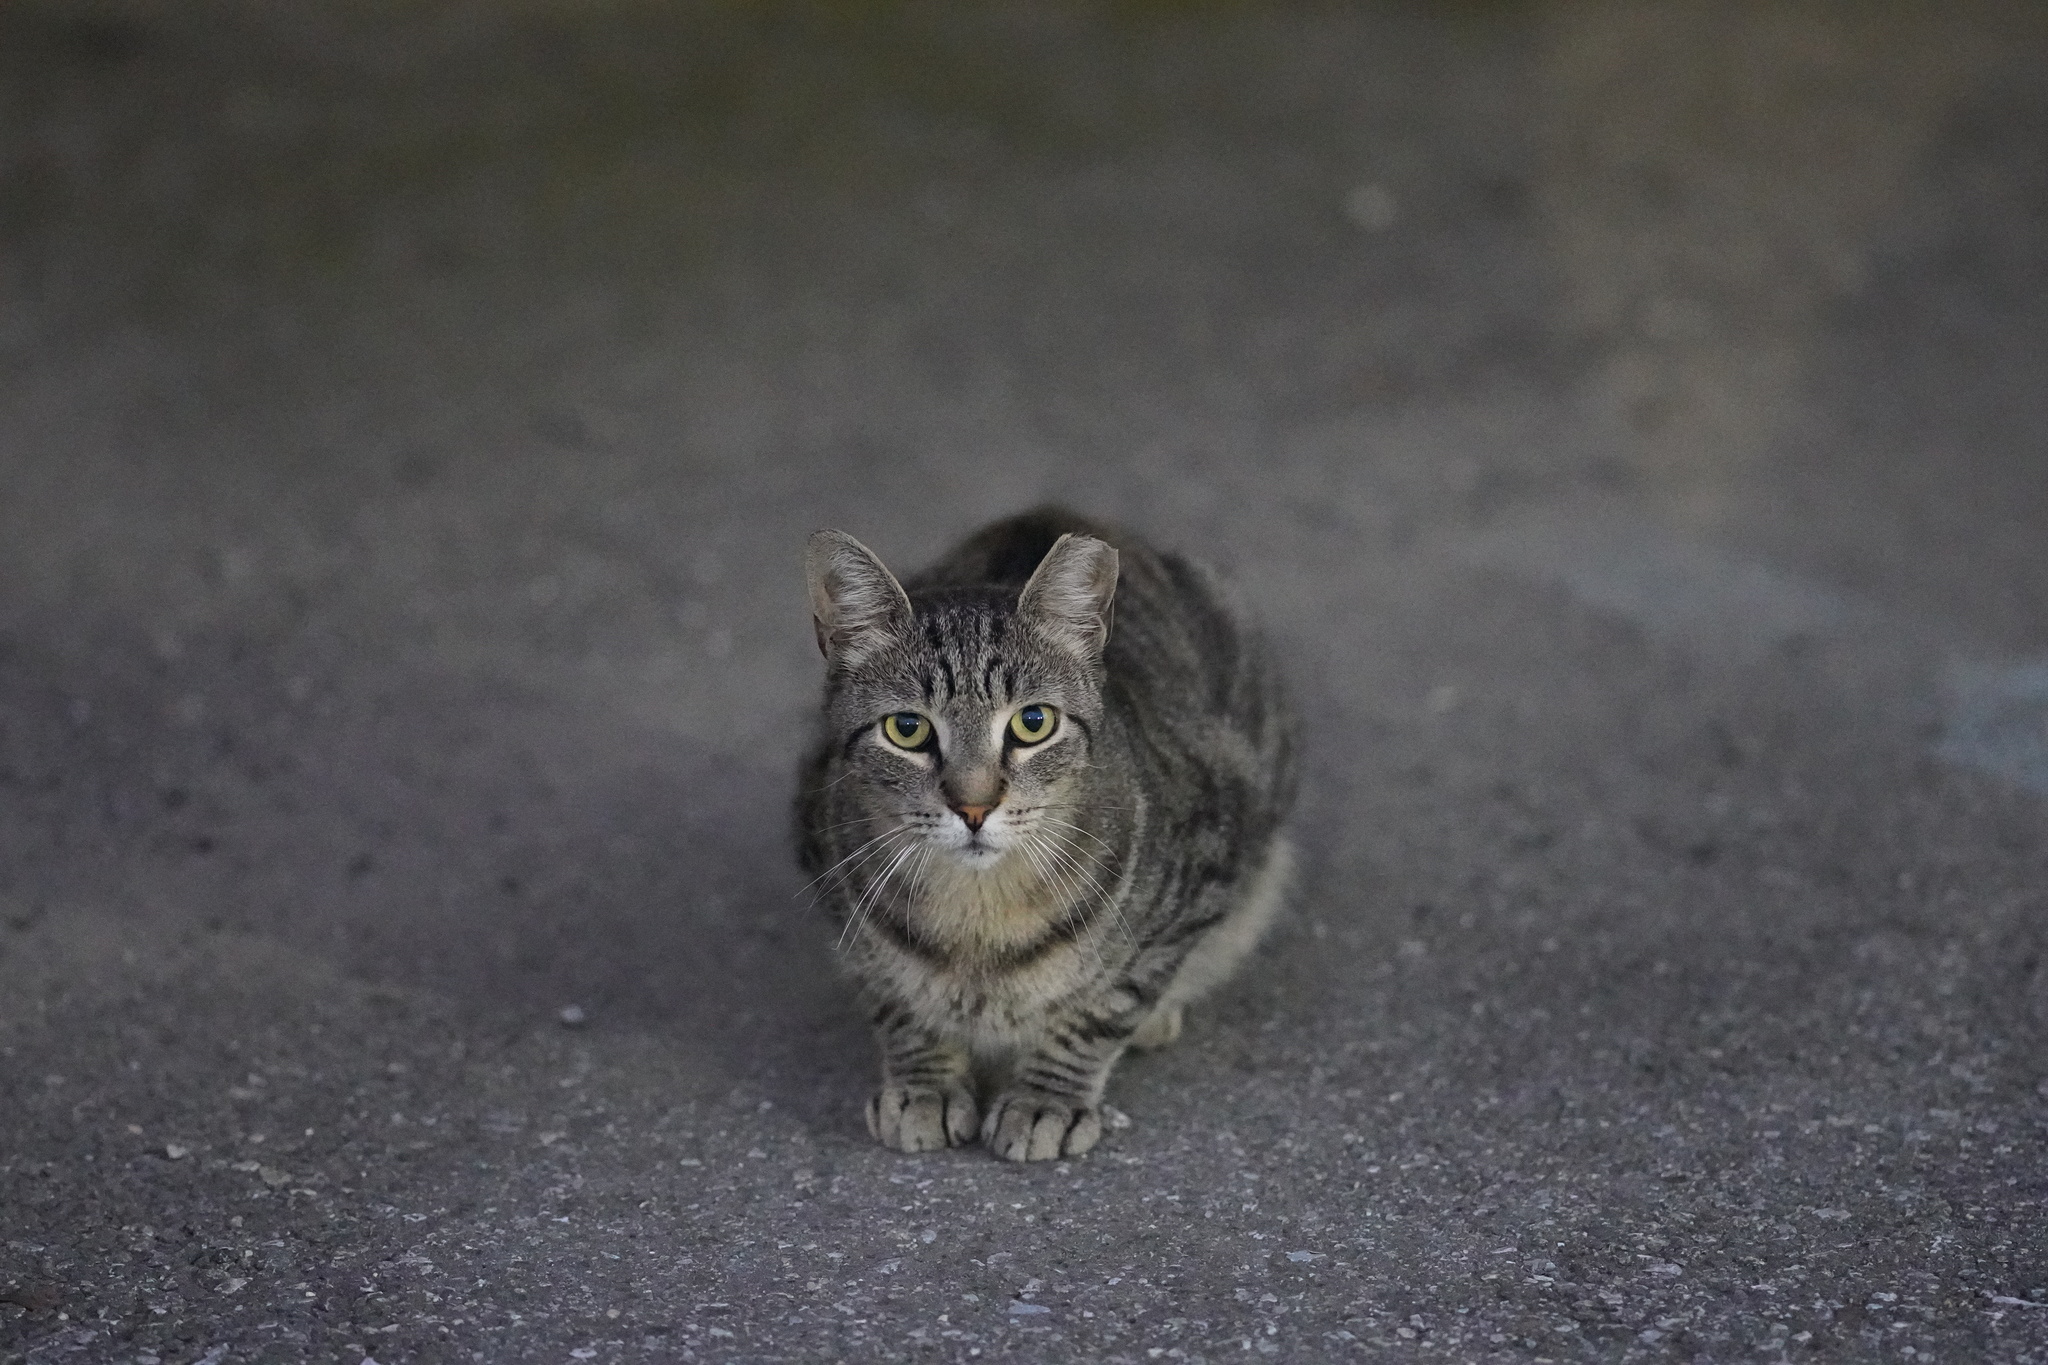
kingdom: Animalia
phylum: Chordata
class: Mammalia
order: Carnivora
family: Felidae
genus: Felis
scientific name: Felis catus
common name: Domestic cat
